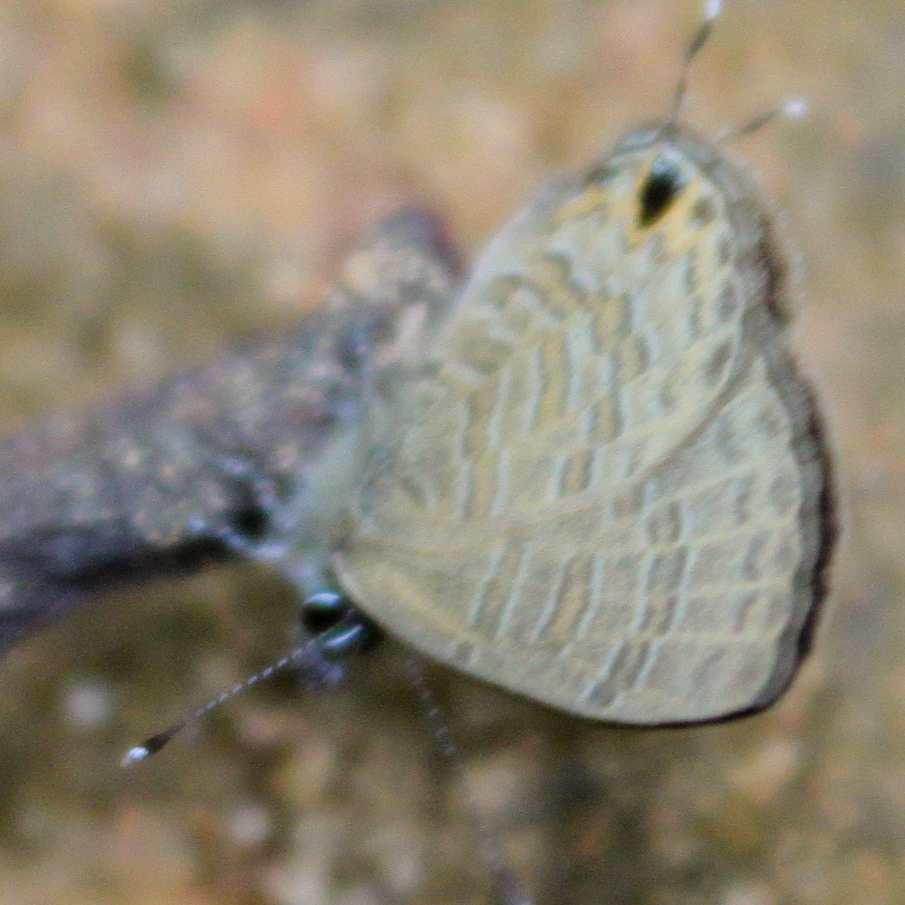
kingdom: Animalia
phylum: Arthropoda
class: Insecta
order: Lepidoptera
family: Lycaenidae
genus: Prosotas
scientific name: Prosotas nora
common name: Common line blue
